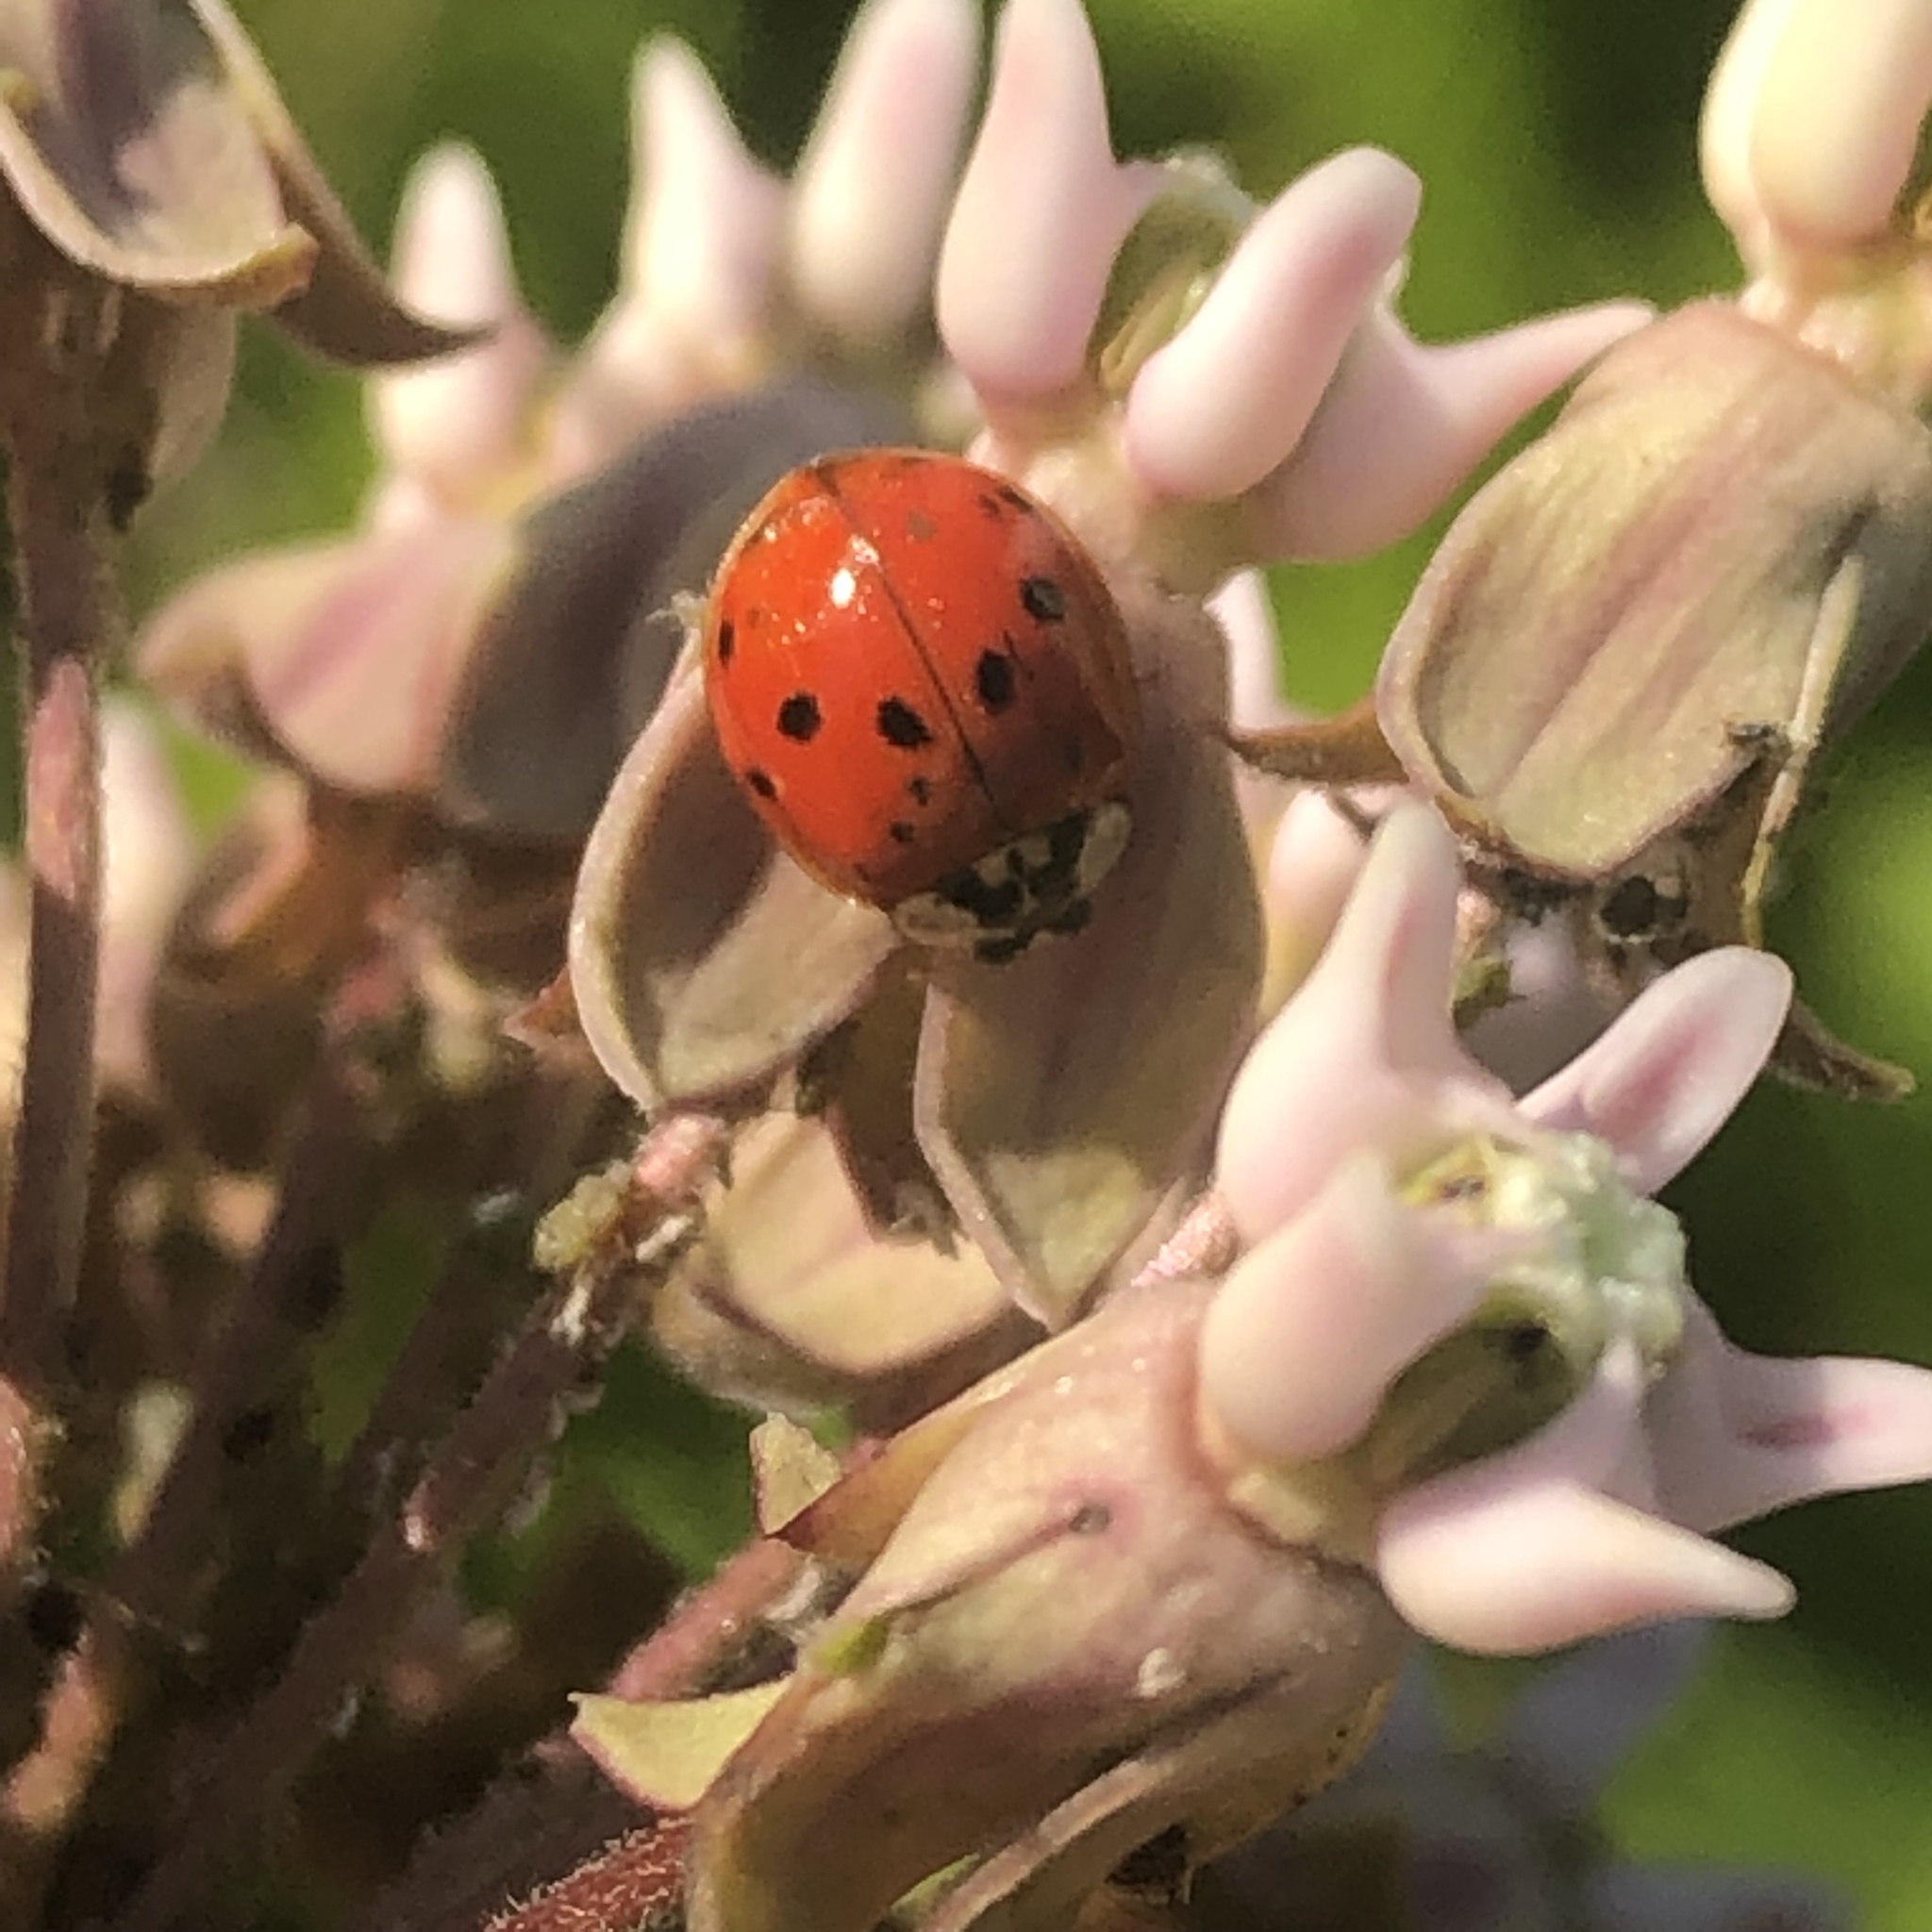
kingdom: Animalia
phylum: Arthropoda
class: Insecta
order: Coleoptera
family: Coccinellidae
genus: Harmonia
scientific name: Harmonia axyridis
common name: Harlequin ladybird
